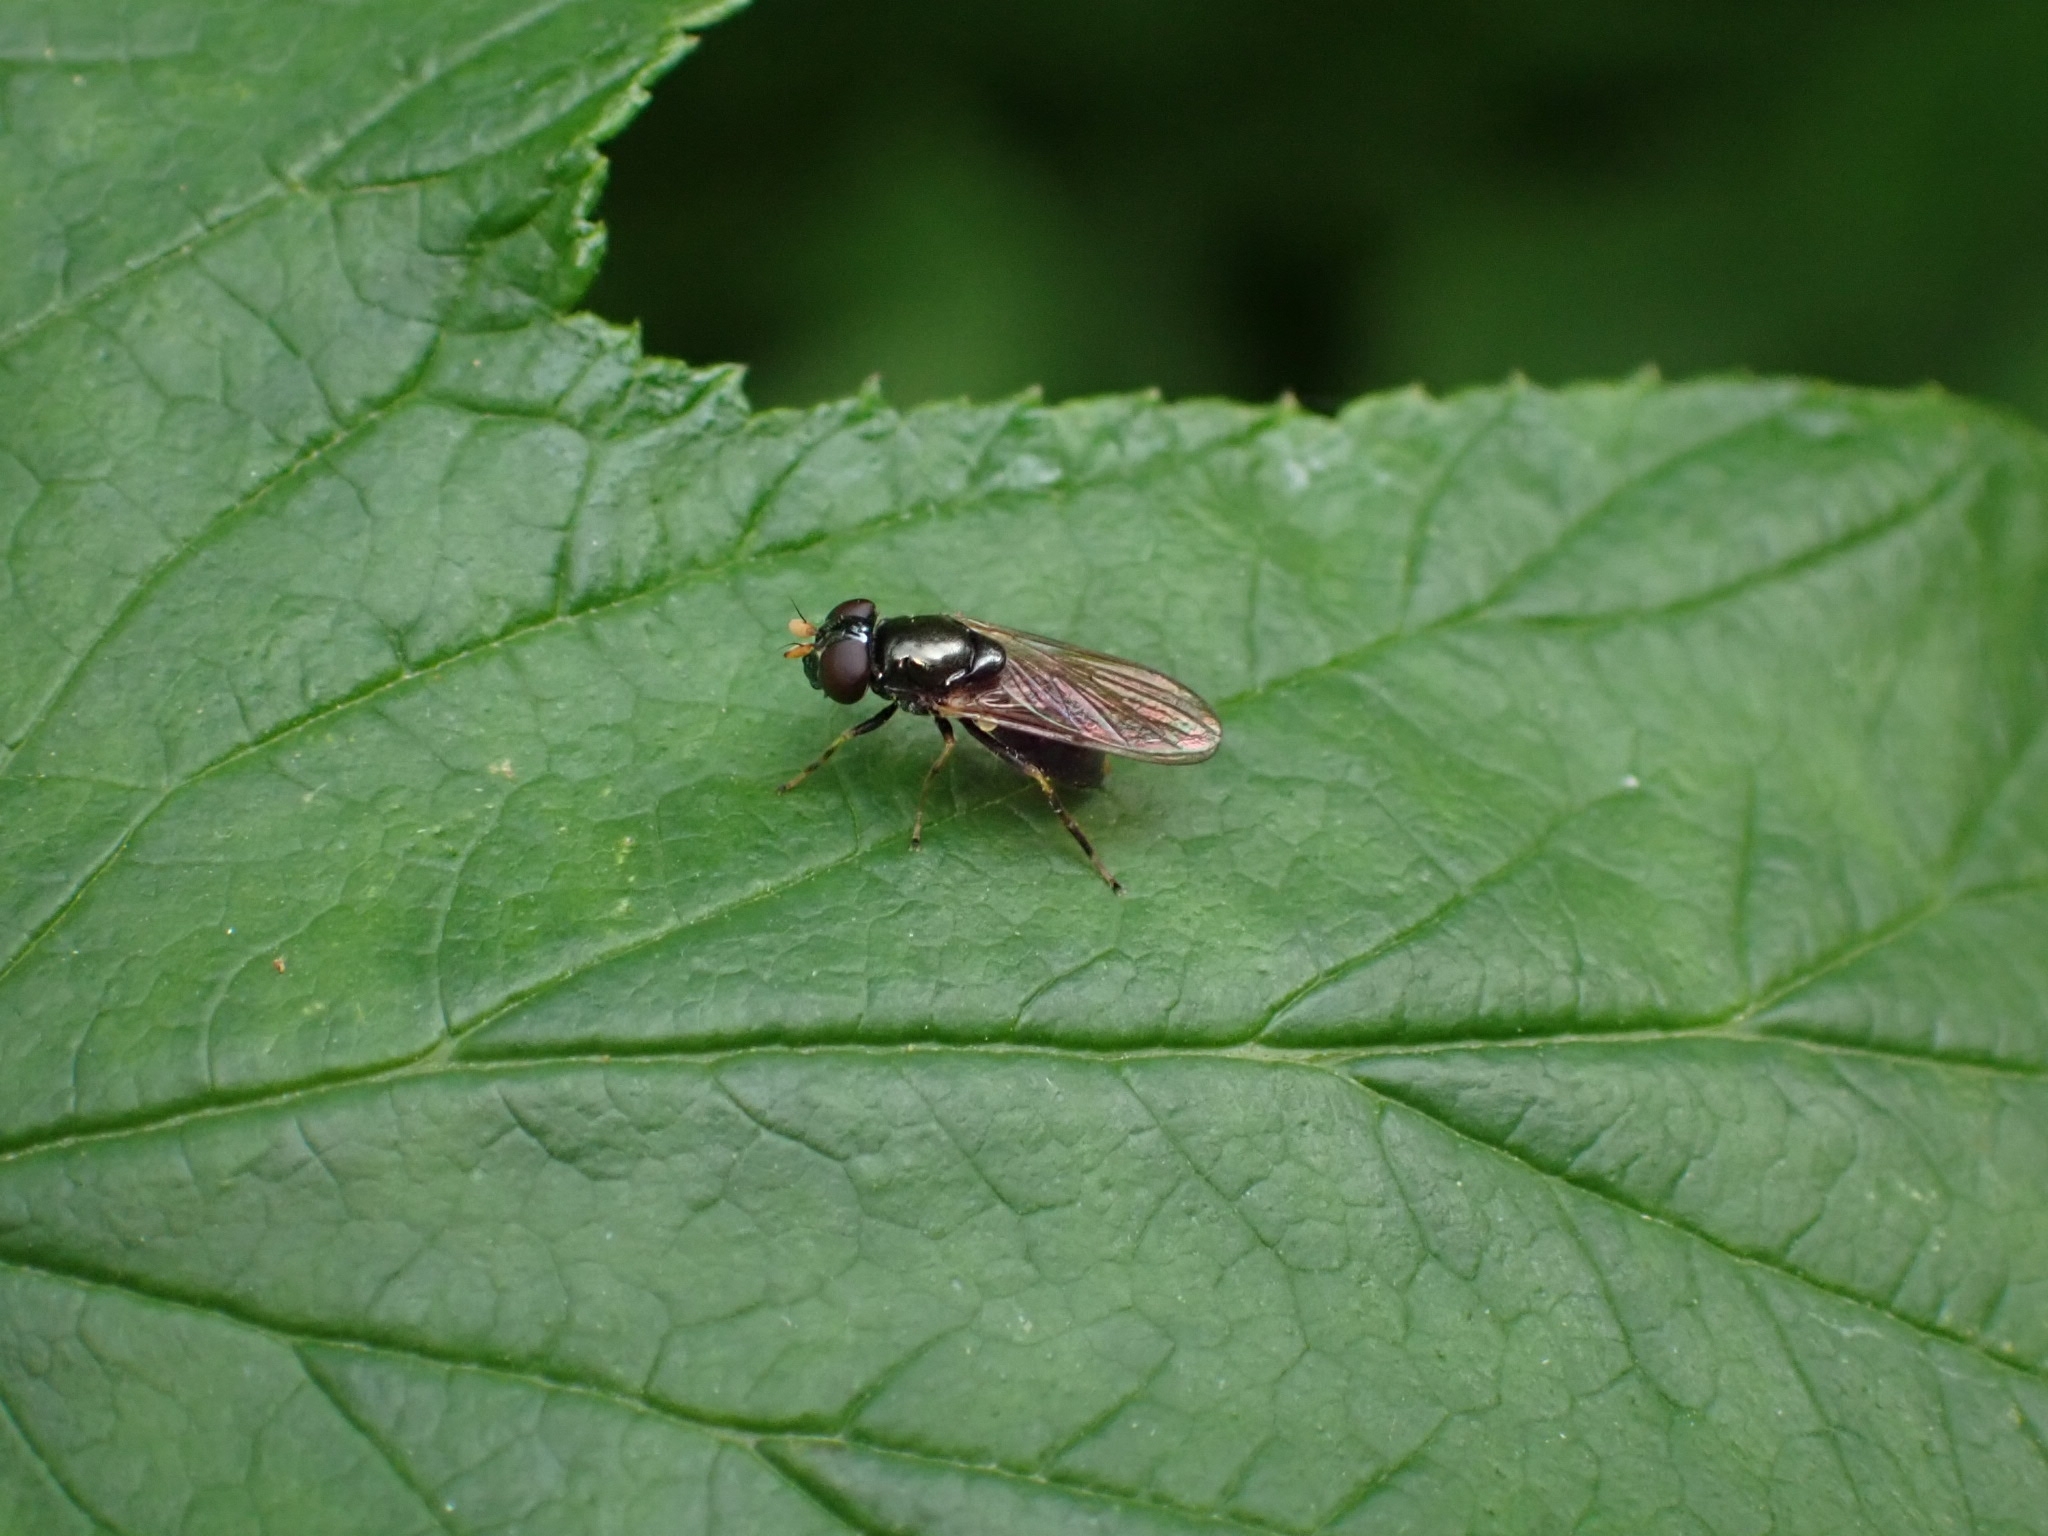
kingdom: Animalia
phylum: Arthropoda
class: Insecta
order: Diptera
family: Syrphidae
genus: Cheilosia
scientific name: Cheilosia pagana
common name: Hover fly
